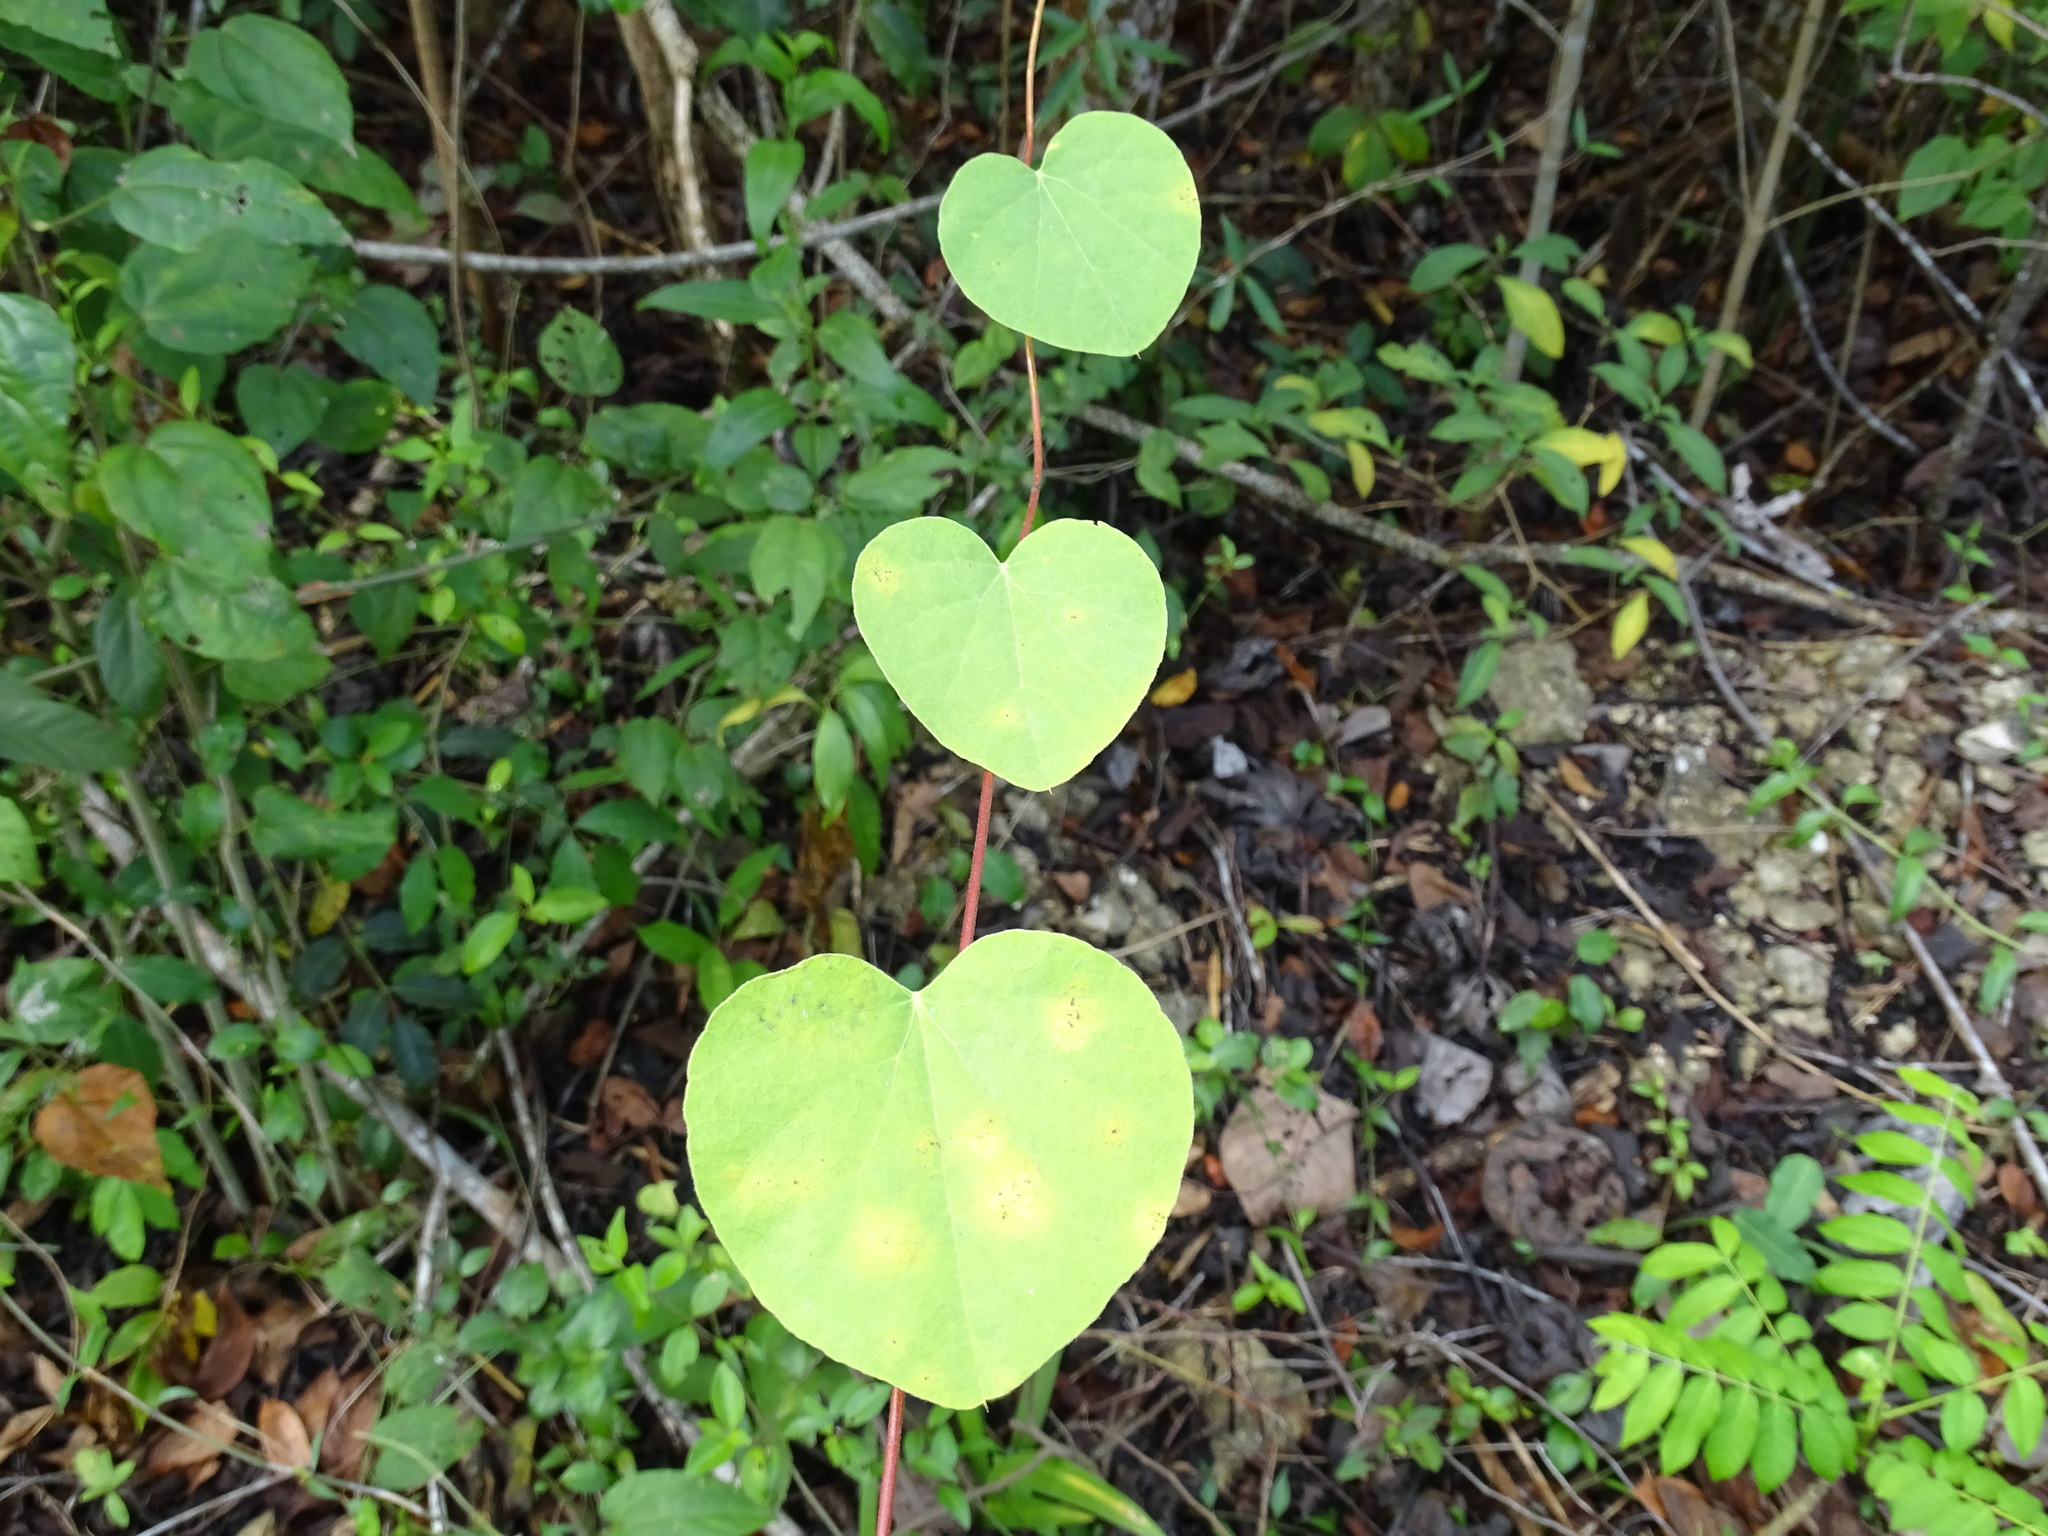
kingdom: Plantae
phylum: Tracheophyta
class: Magnoliopsida
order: Ranunculales
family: Menispermaceae
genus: Cissampelos
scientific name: Cissampelos pareira
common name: Velvetleaf
